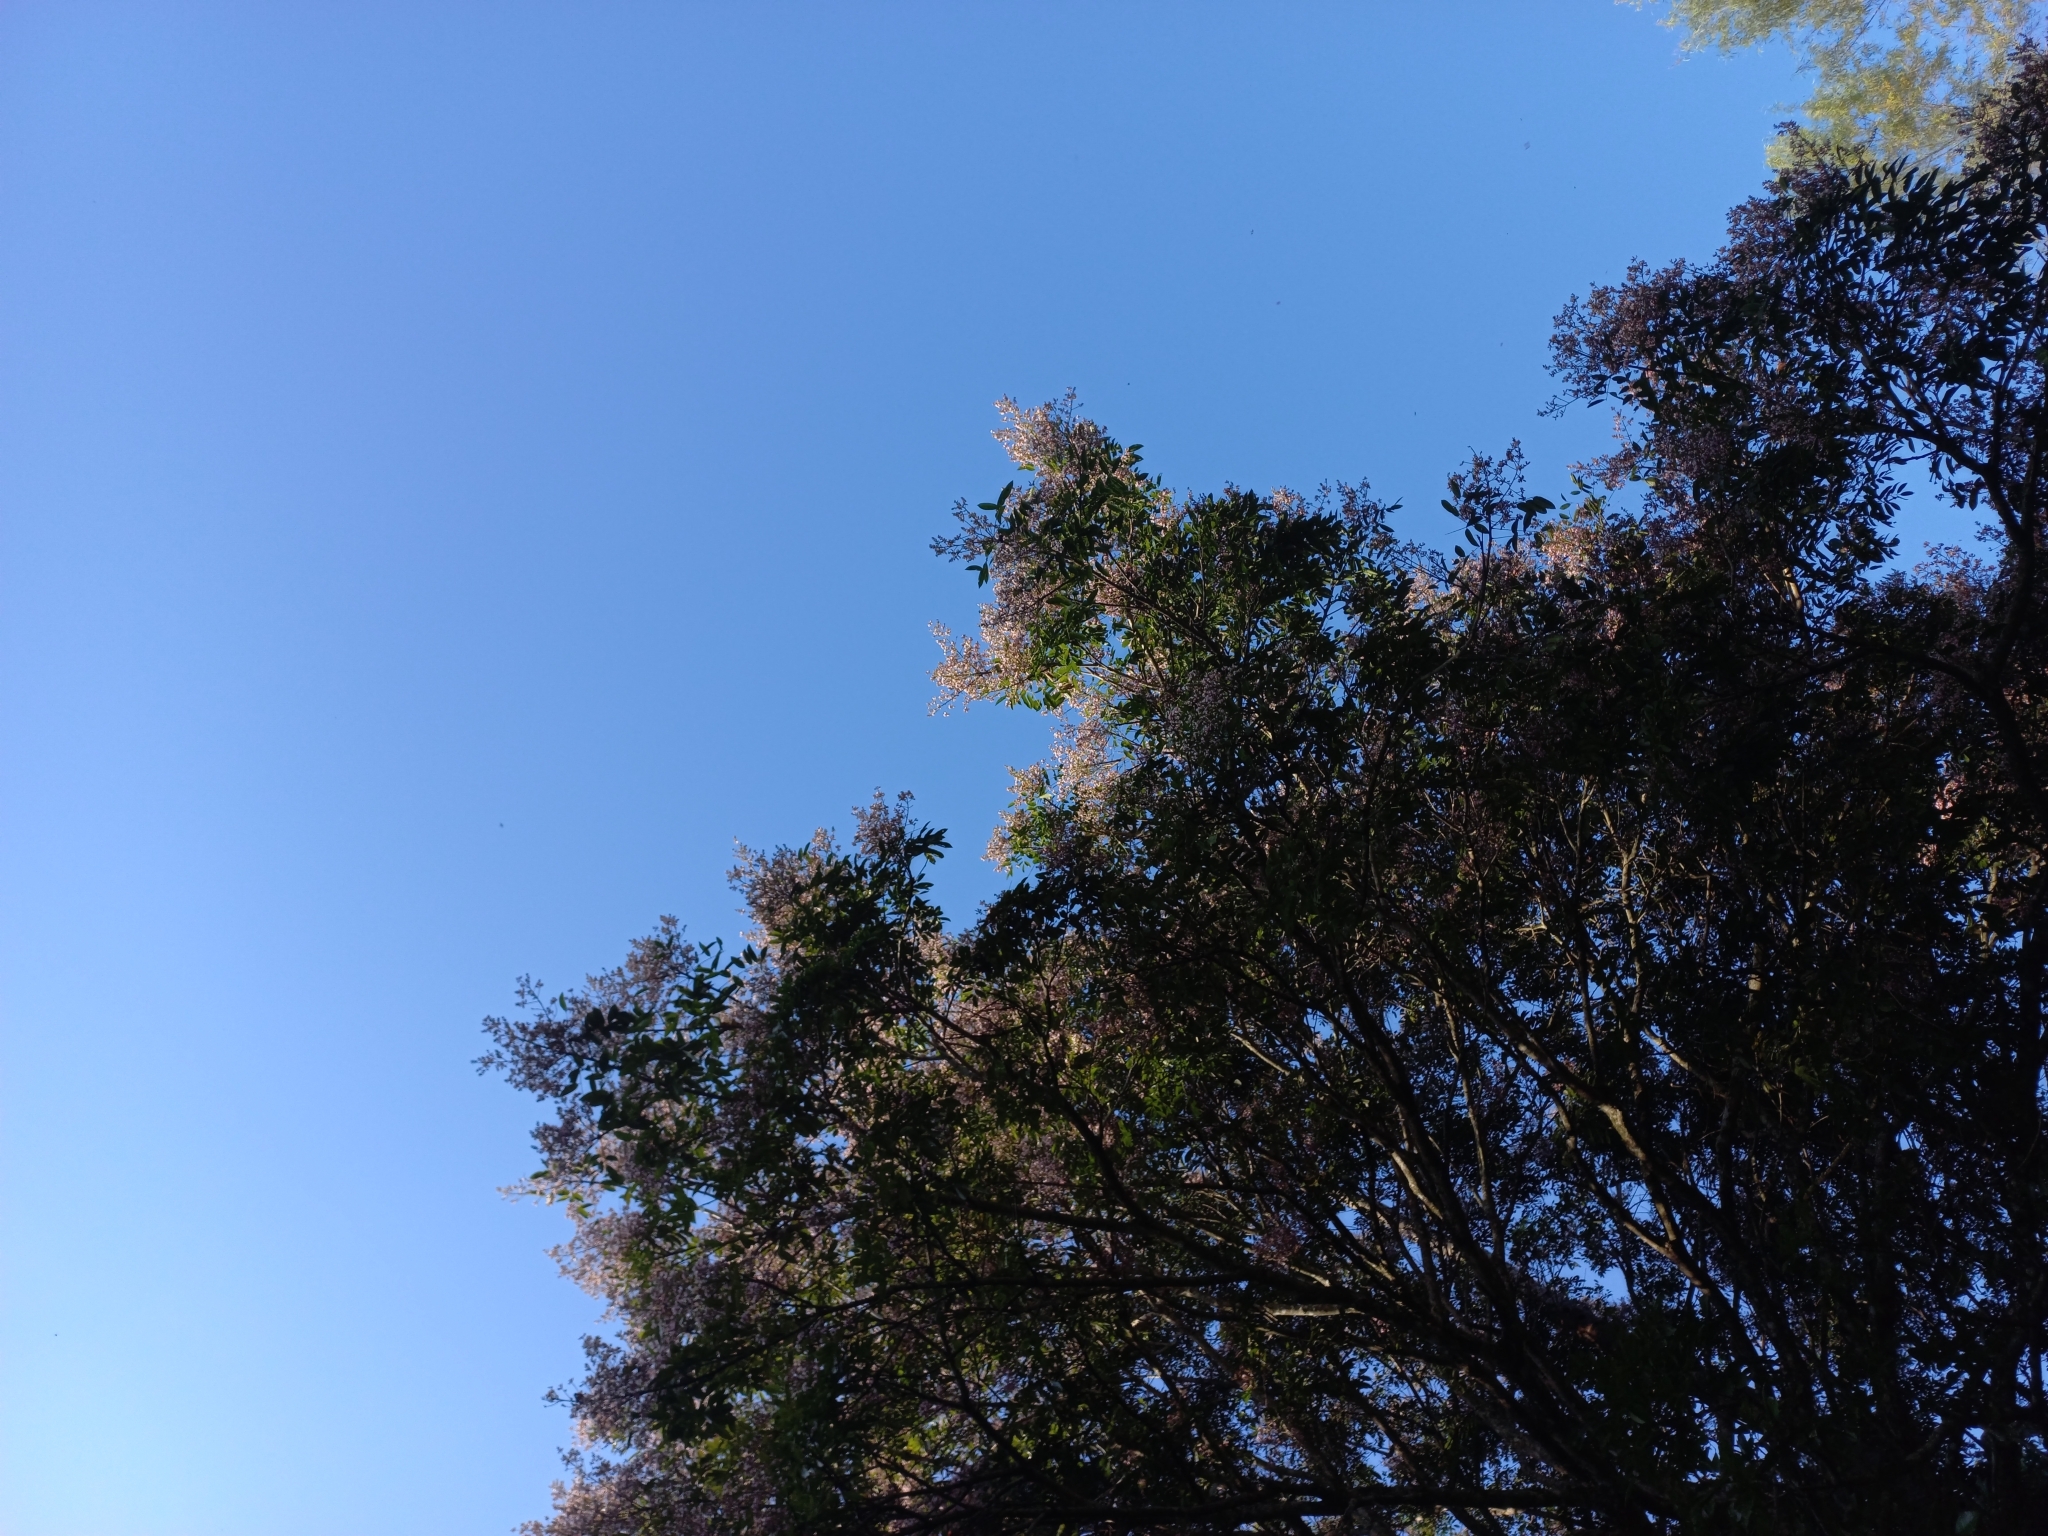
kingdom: Plantae
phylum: Tracheophyta
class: Magnoliopsida
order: Fabales
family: Fabaceae
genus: Andira
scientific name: Andira inermis
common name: Angelin
